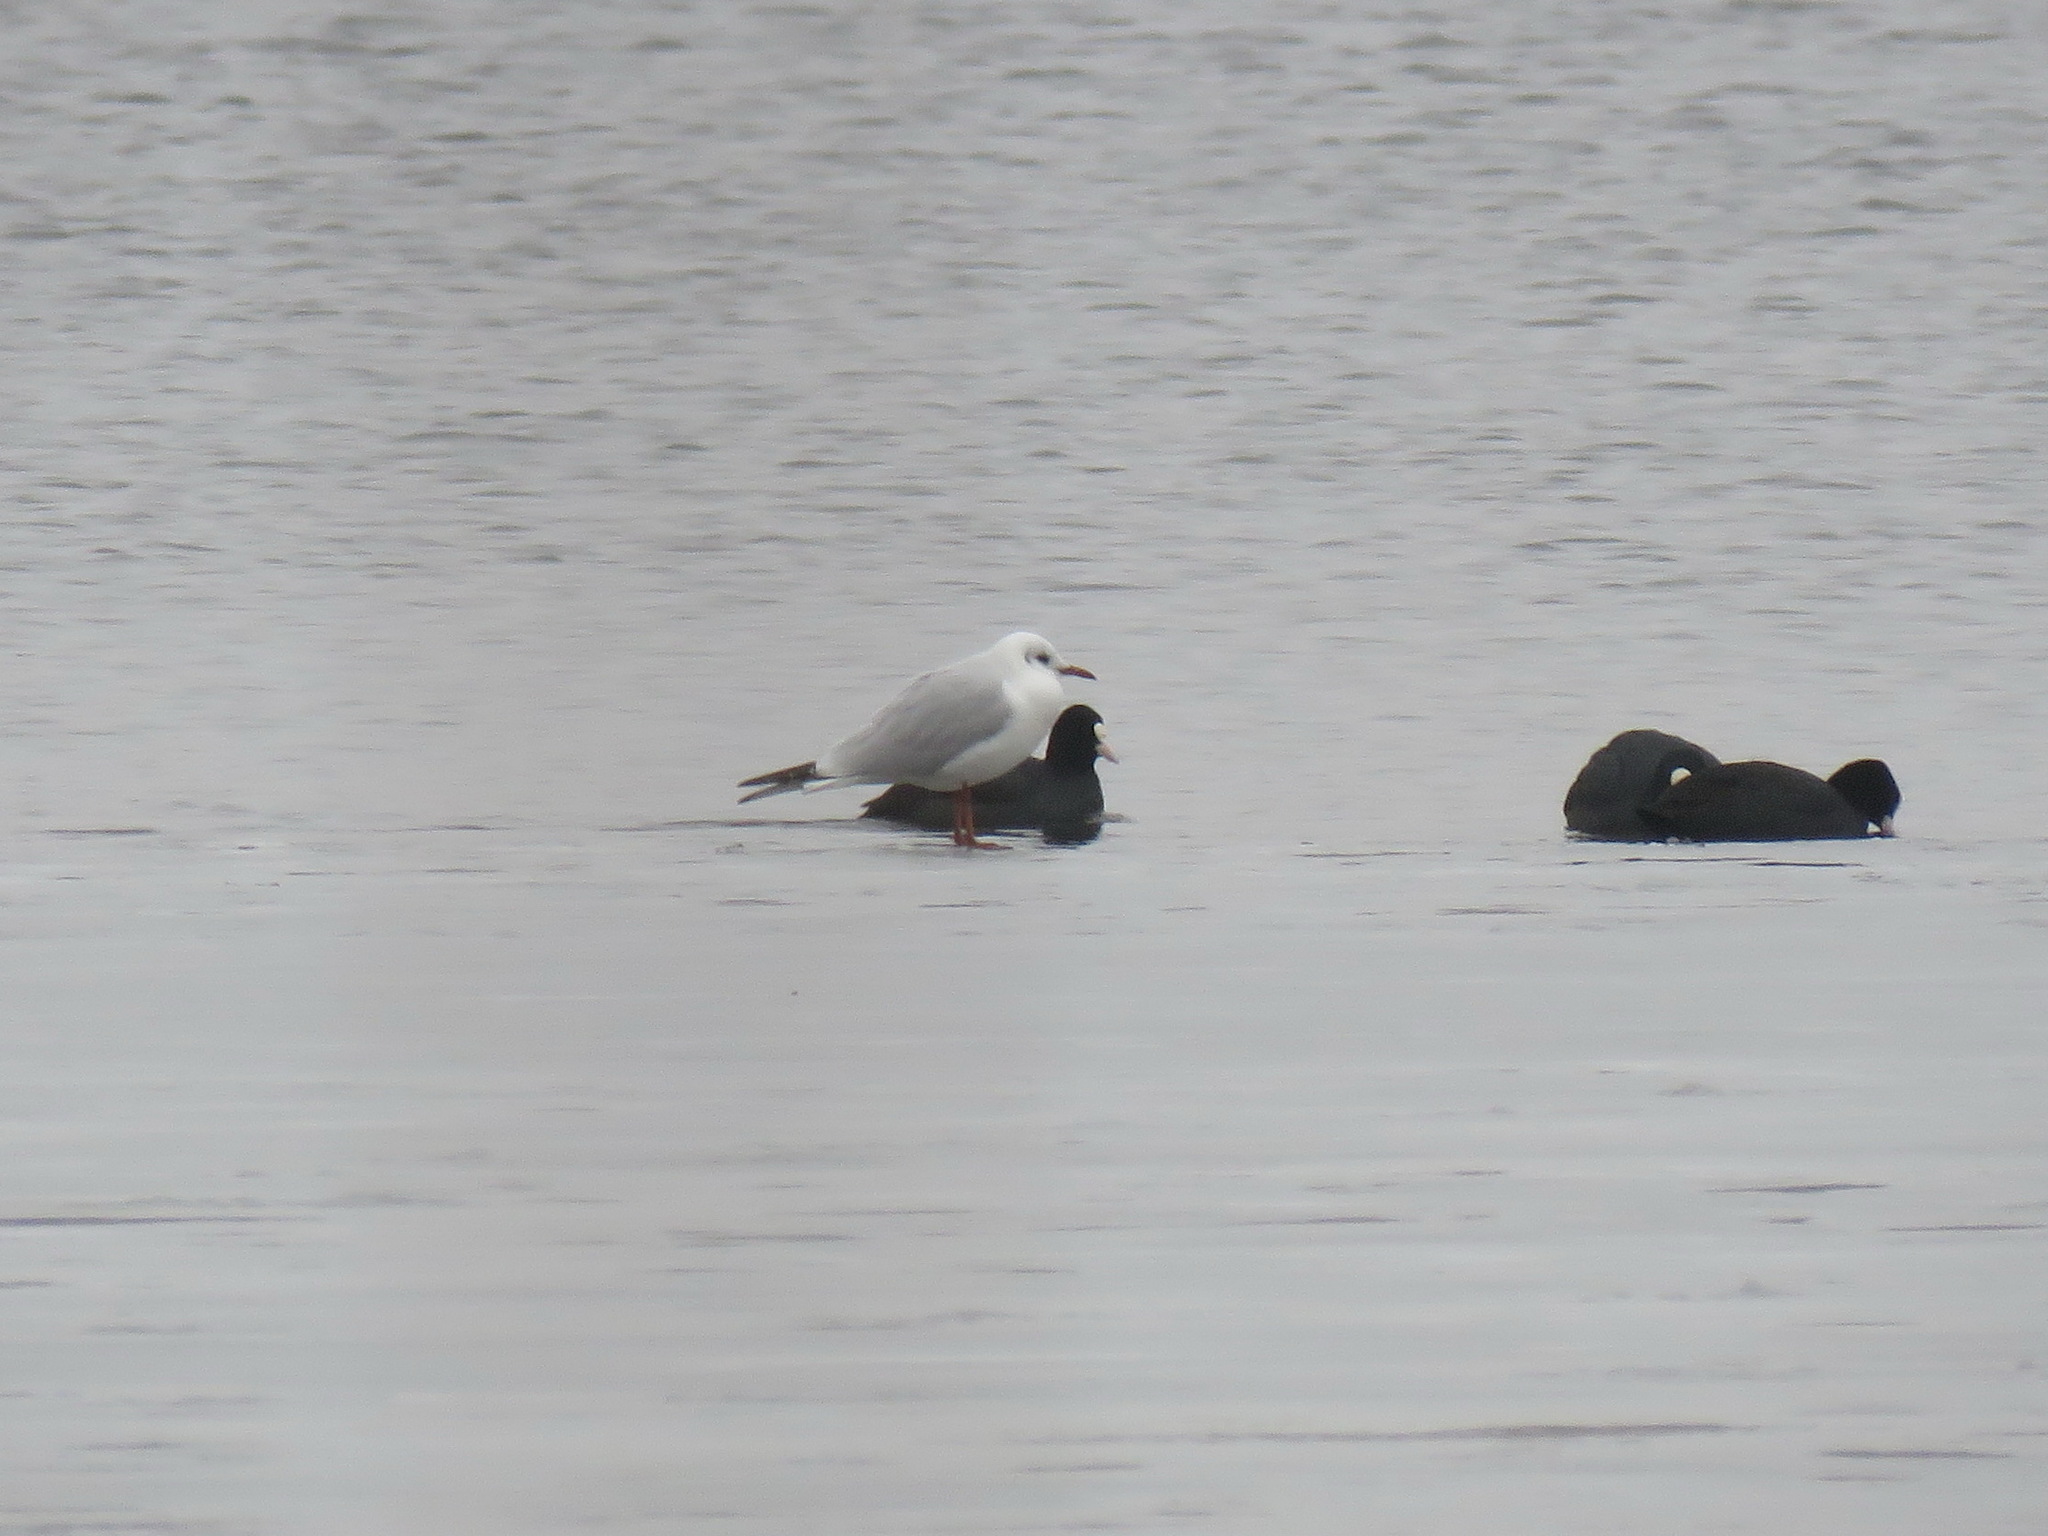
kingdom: Animalia
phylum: Chordata
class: Aves
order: Gruiformes
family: Rallidae
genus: Fulica
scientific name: Fulica atra
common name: Eurasian coot
